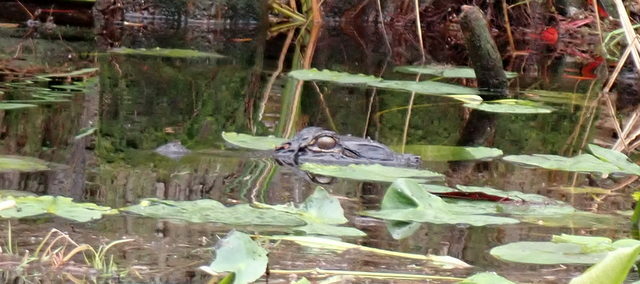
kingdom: Animalia
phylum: Chordata
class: Crocodylia
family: Alligatoridae
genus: Alligator
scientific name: Alligator mississippiensis
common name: American alligator
